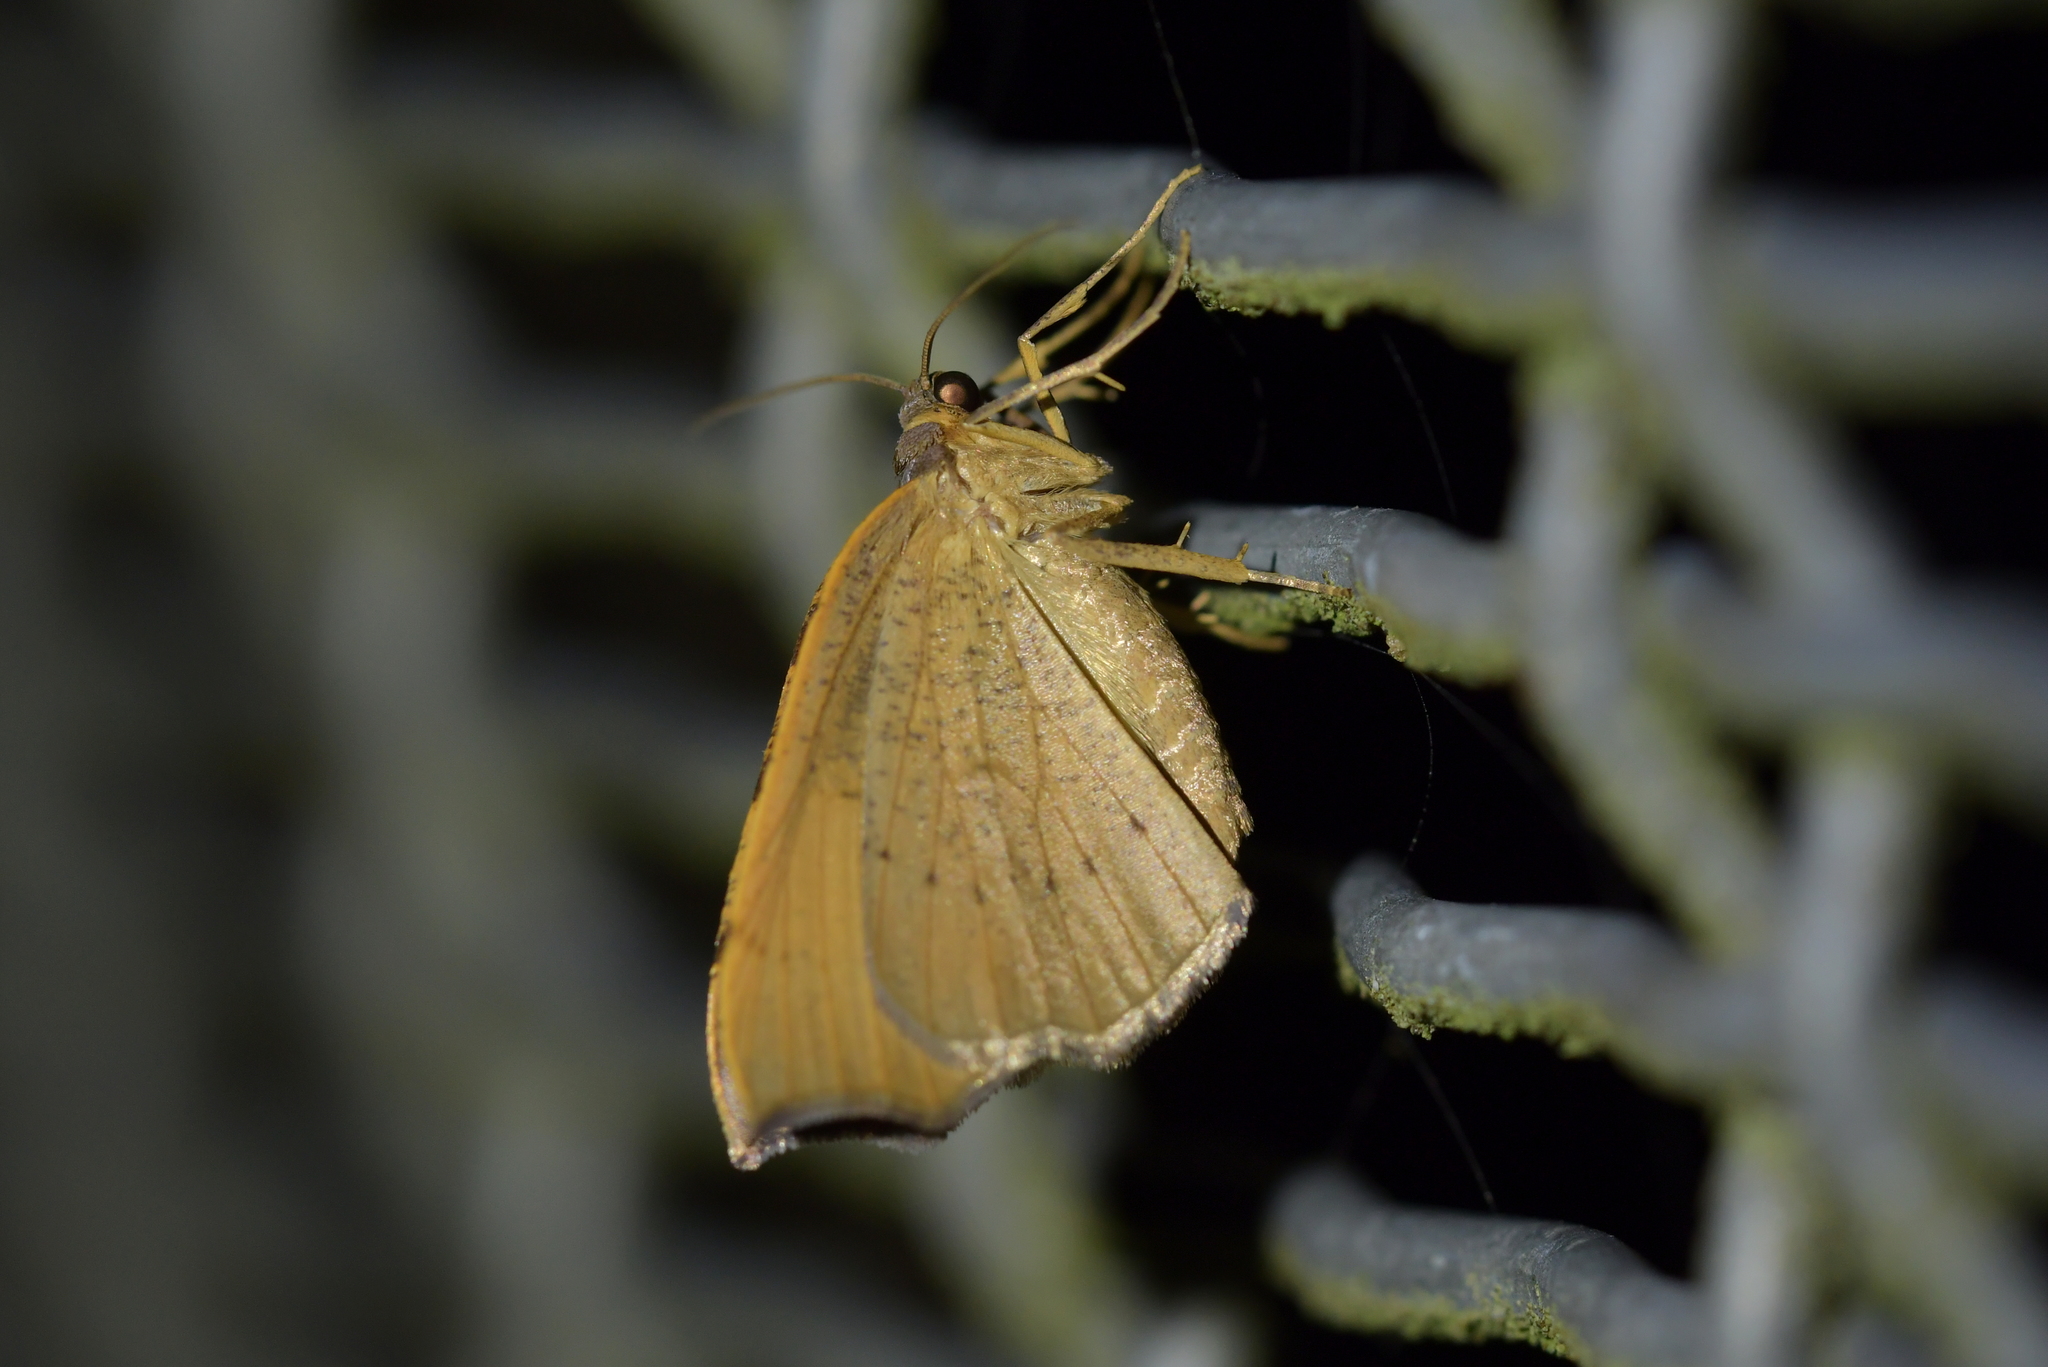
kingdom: Animalia
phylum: Arthropoda
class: Insecta
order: Lepidoptera
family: Geometridae
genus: Sestra
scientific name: Sestra flexata
